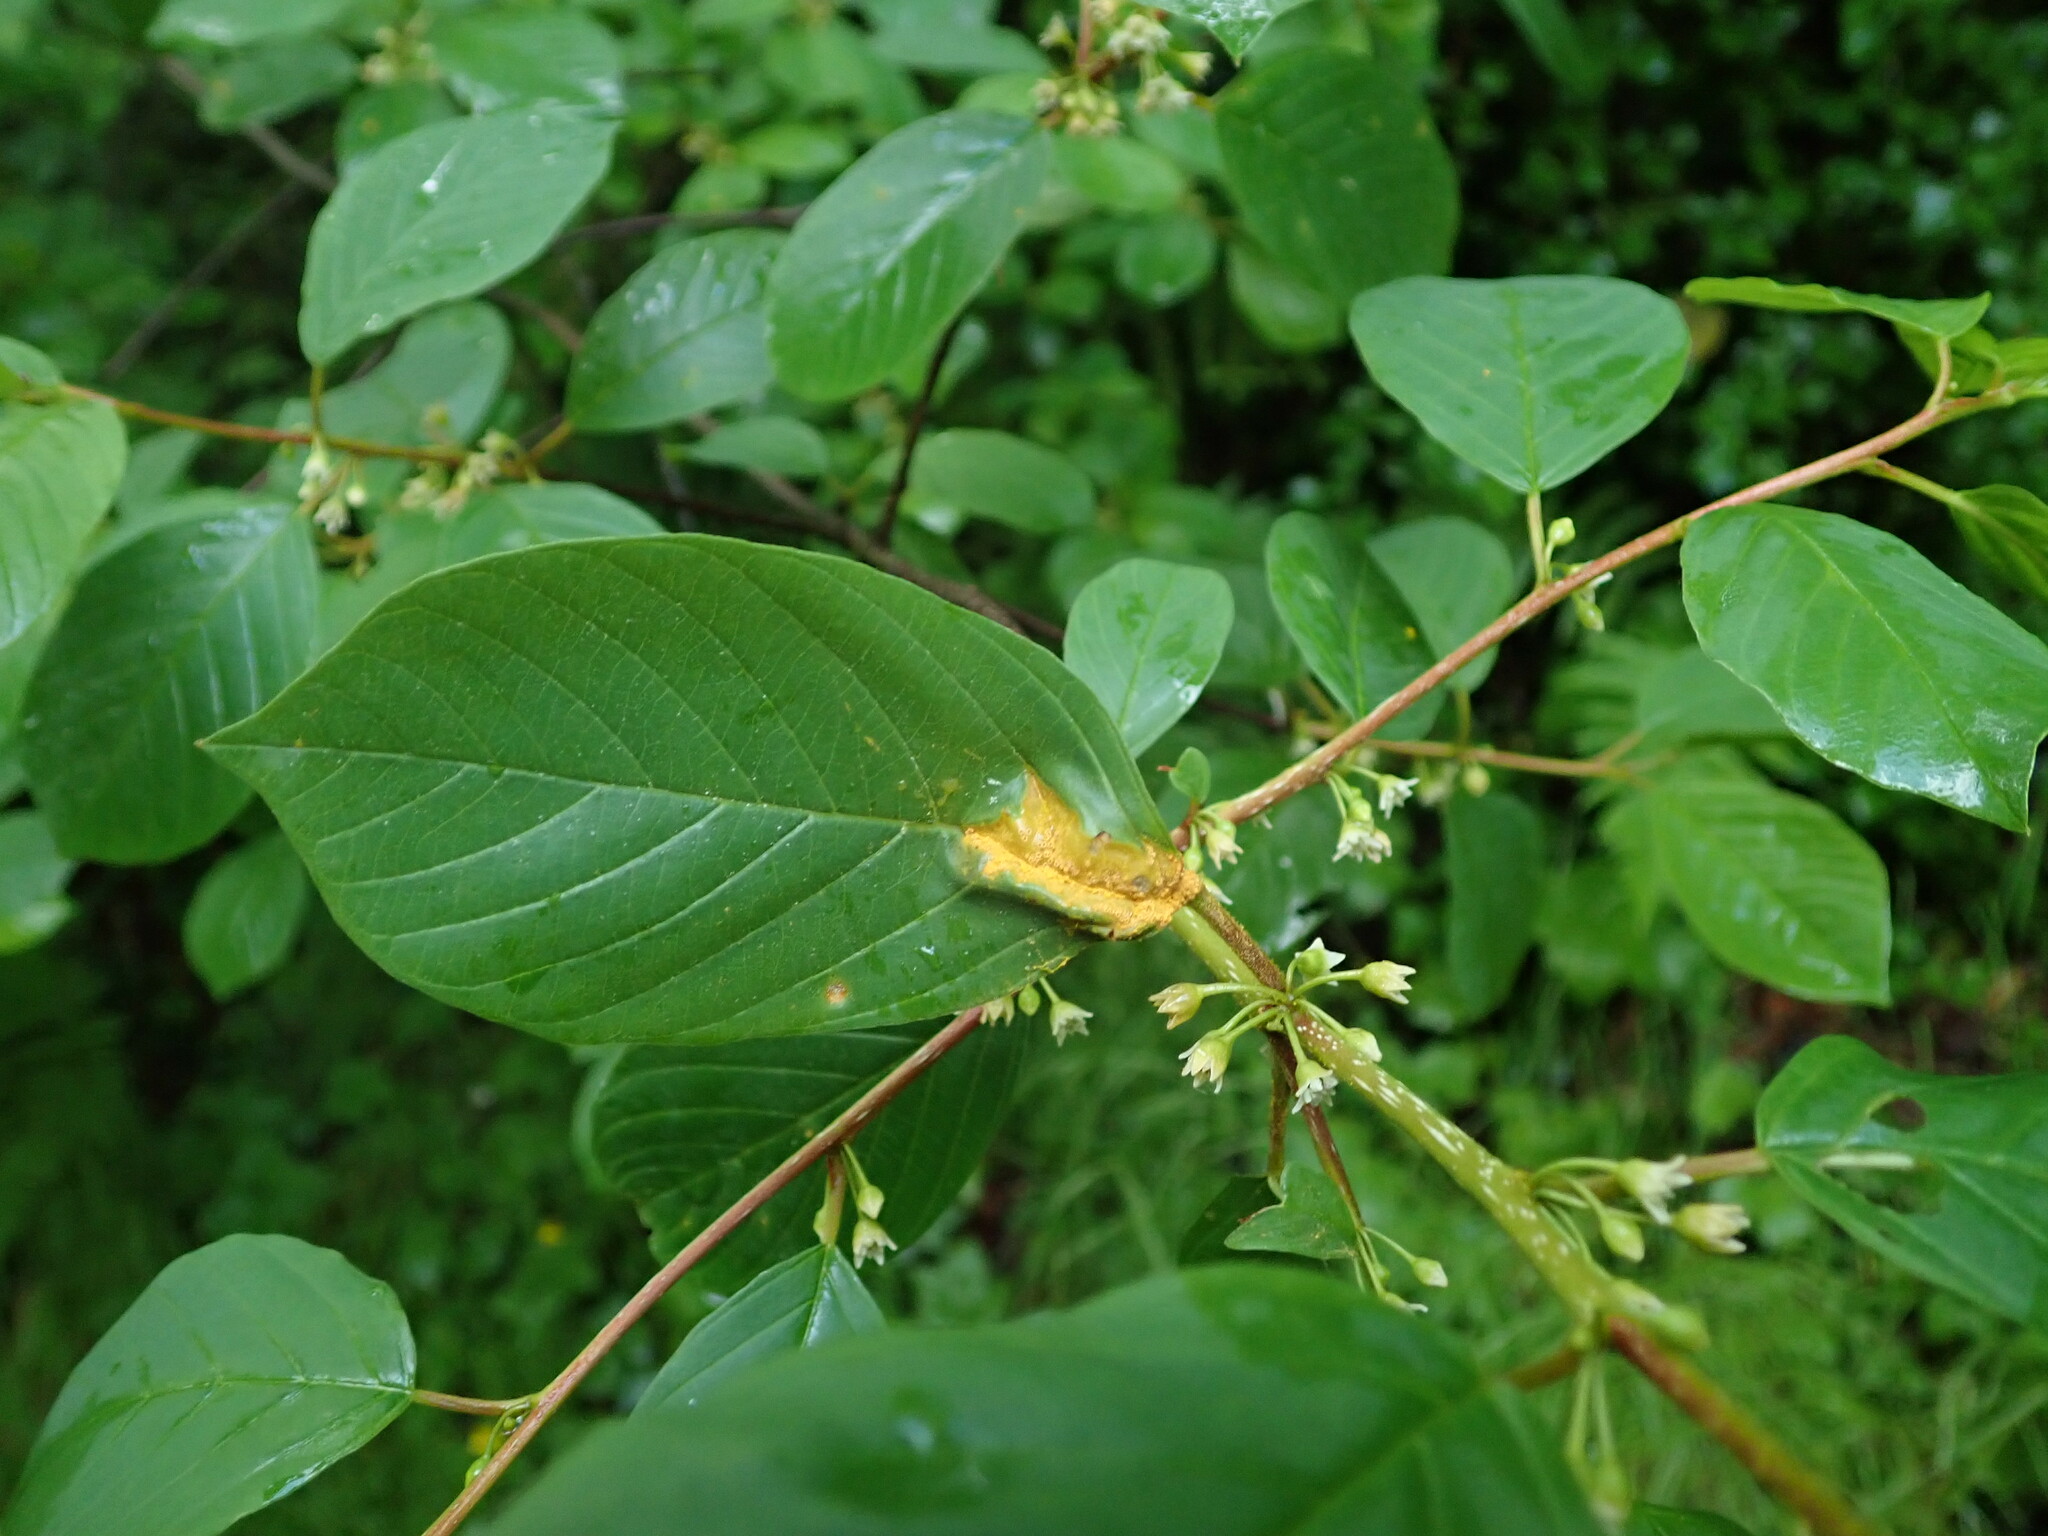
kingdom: Fungi
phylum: Basidiomycota
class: Pucciniomycetes
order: Pucciniales
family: Pucciniaceae
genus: Puccinia
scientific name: Puccinia coronata
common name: Crown rust
